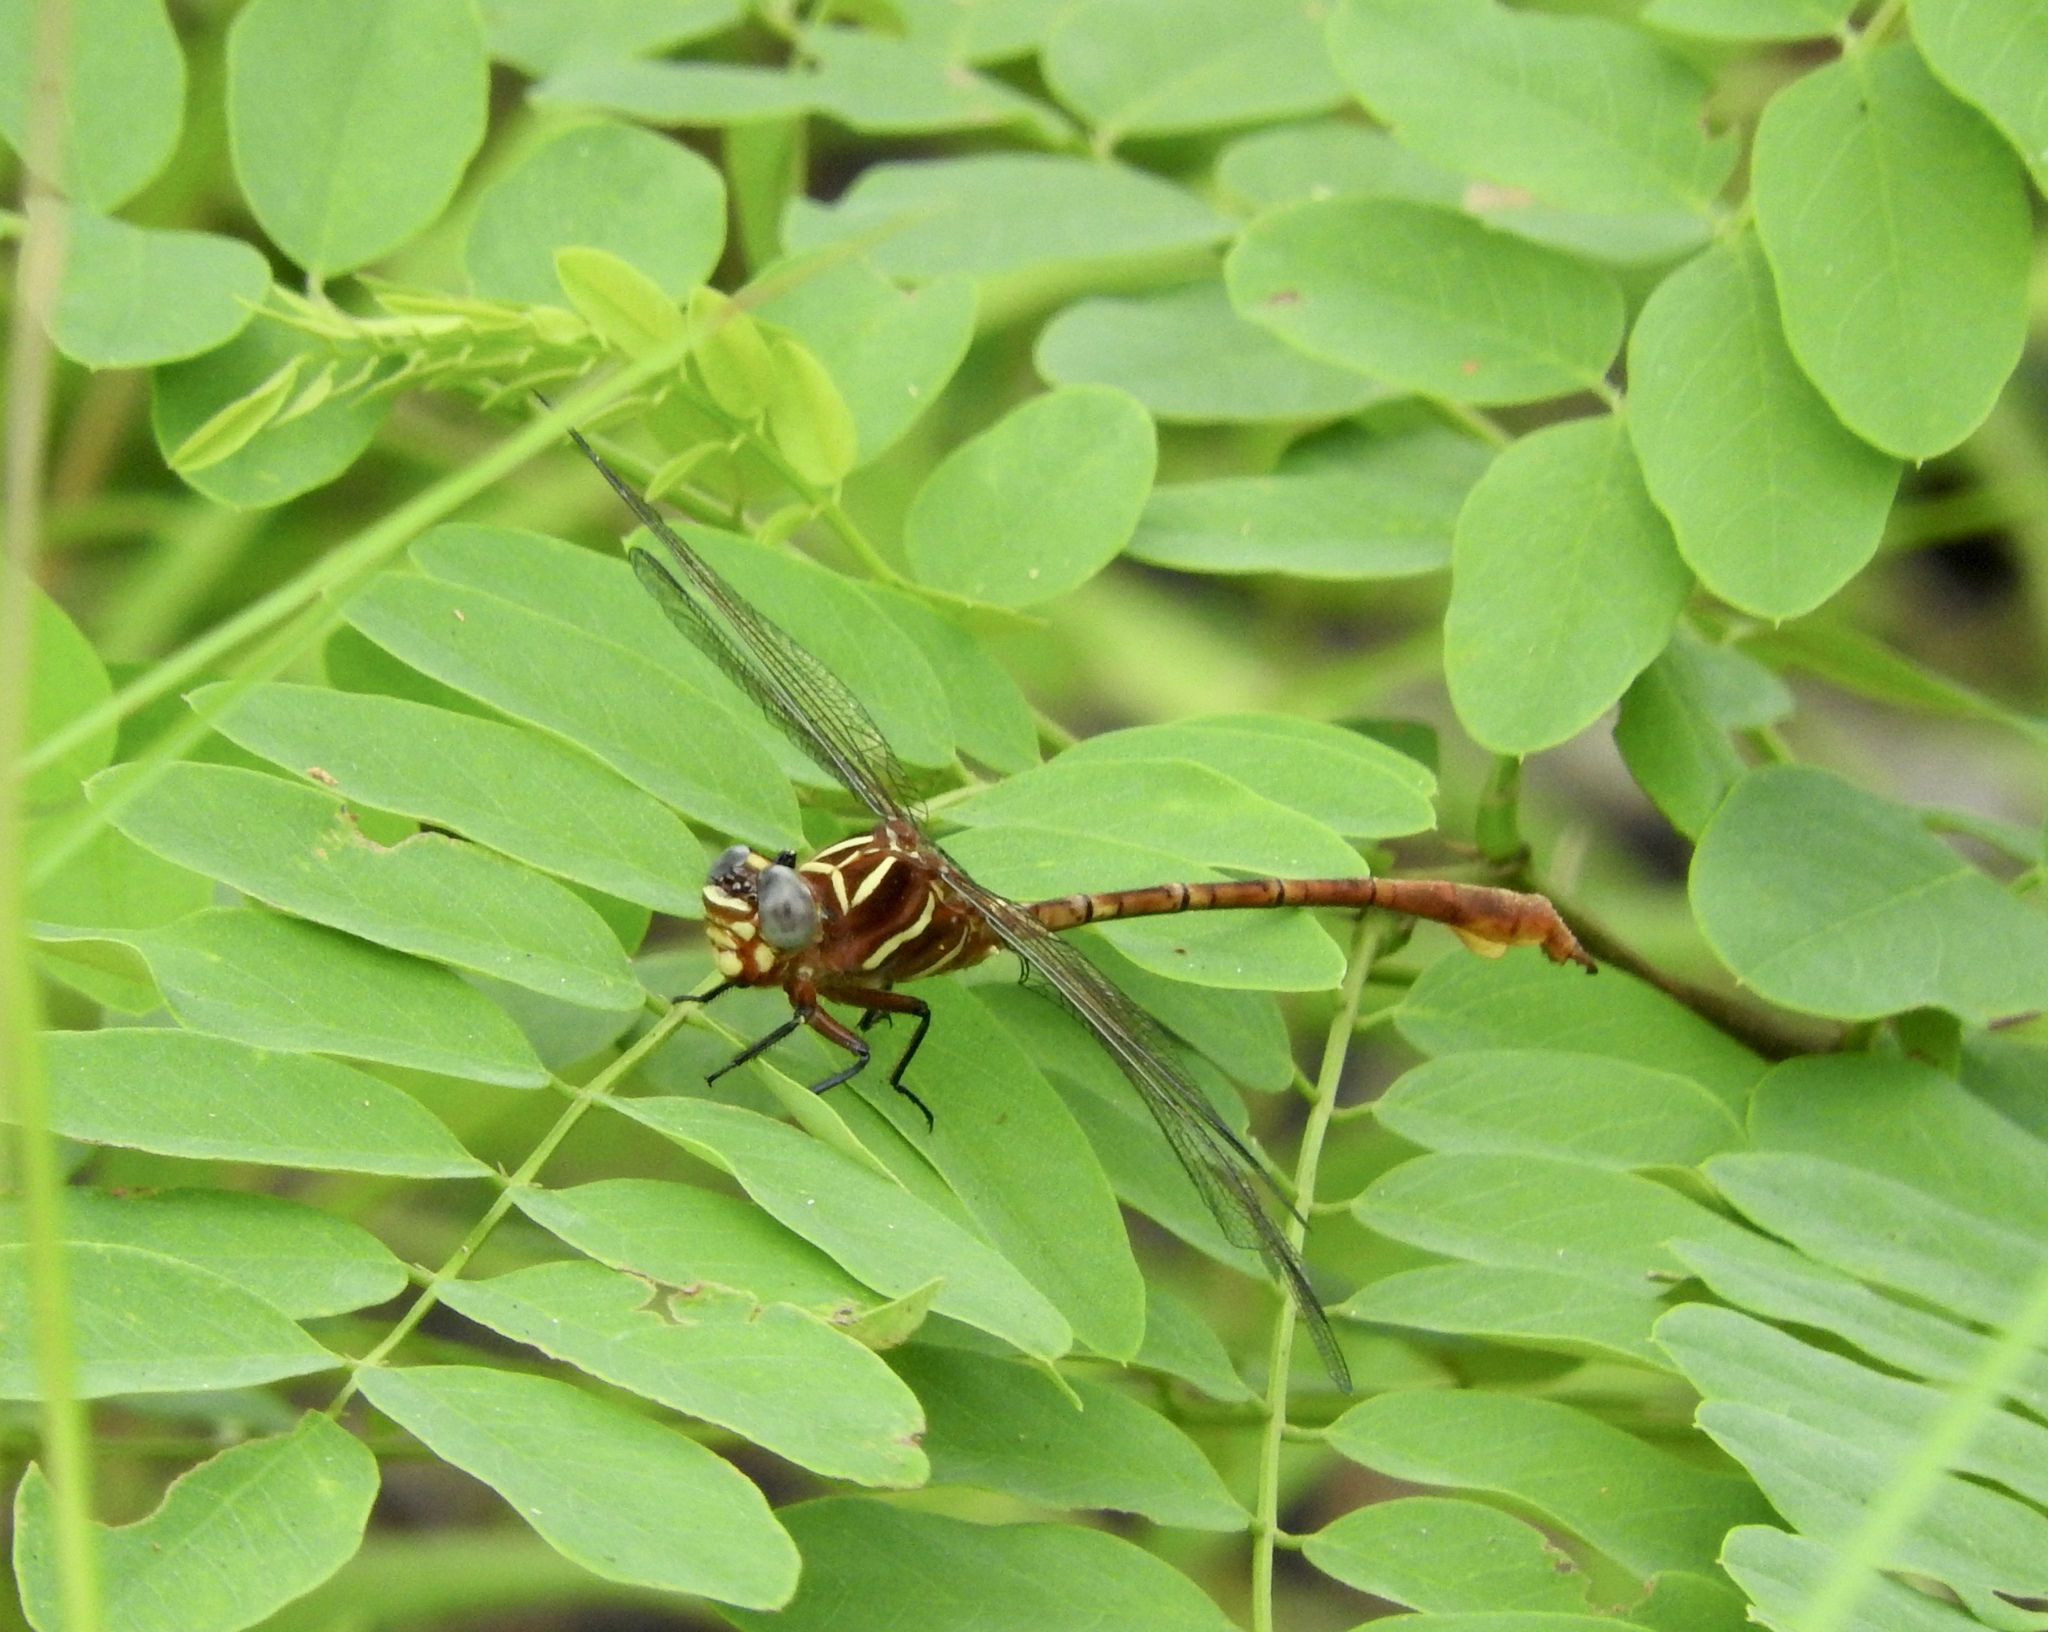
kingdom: Animalia
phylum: Arthropoda
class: Insecta
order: Odonata
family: Gomphidae
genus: Aphylla
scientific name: Aphylla williamsoni
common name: Two-striped forceptail
